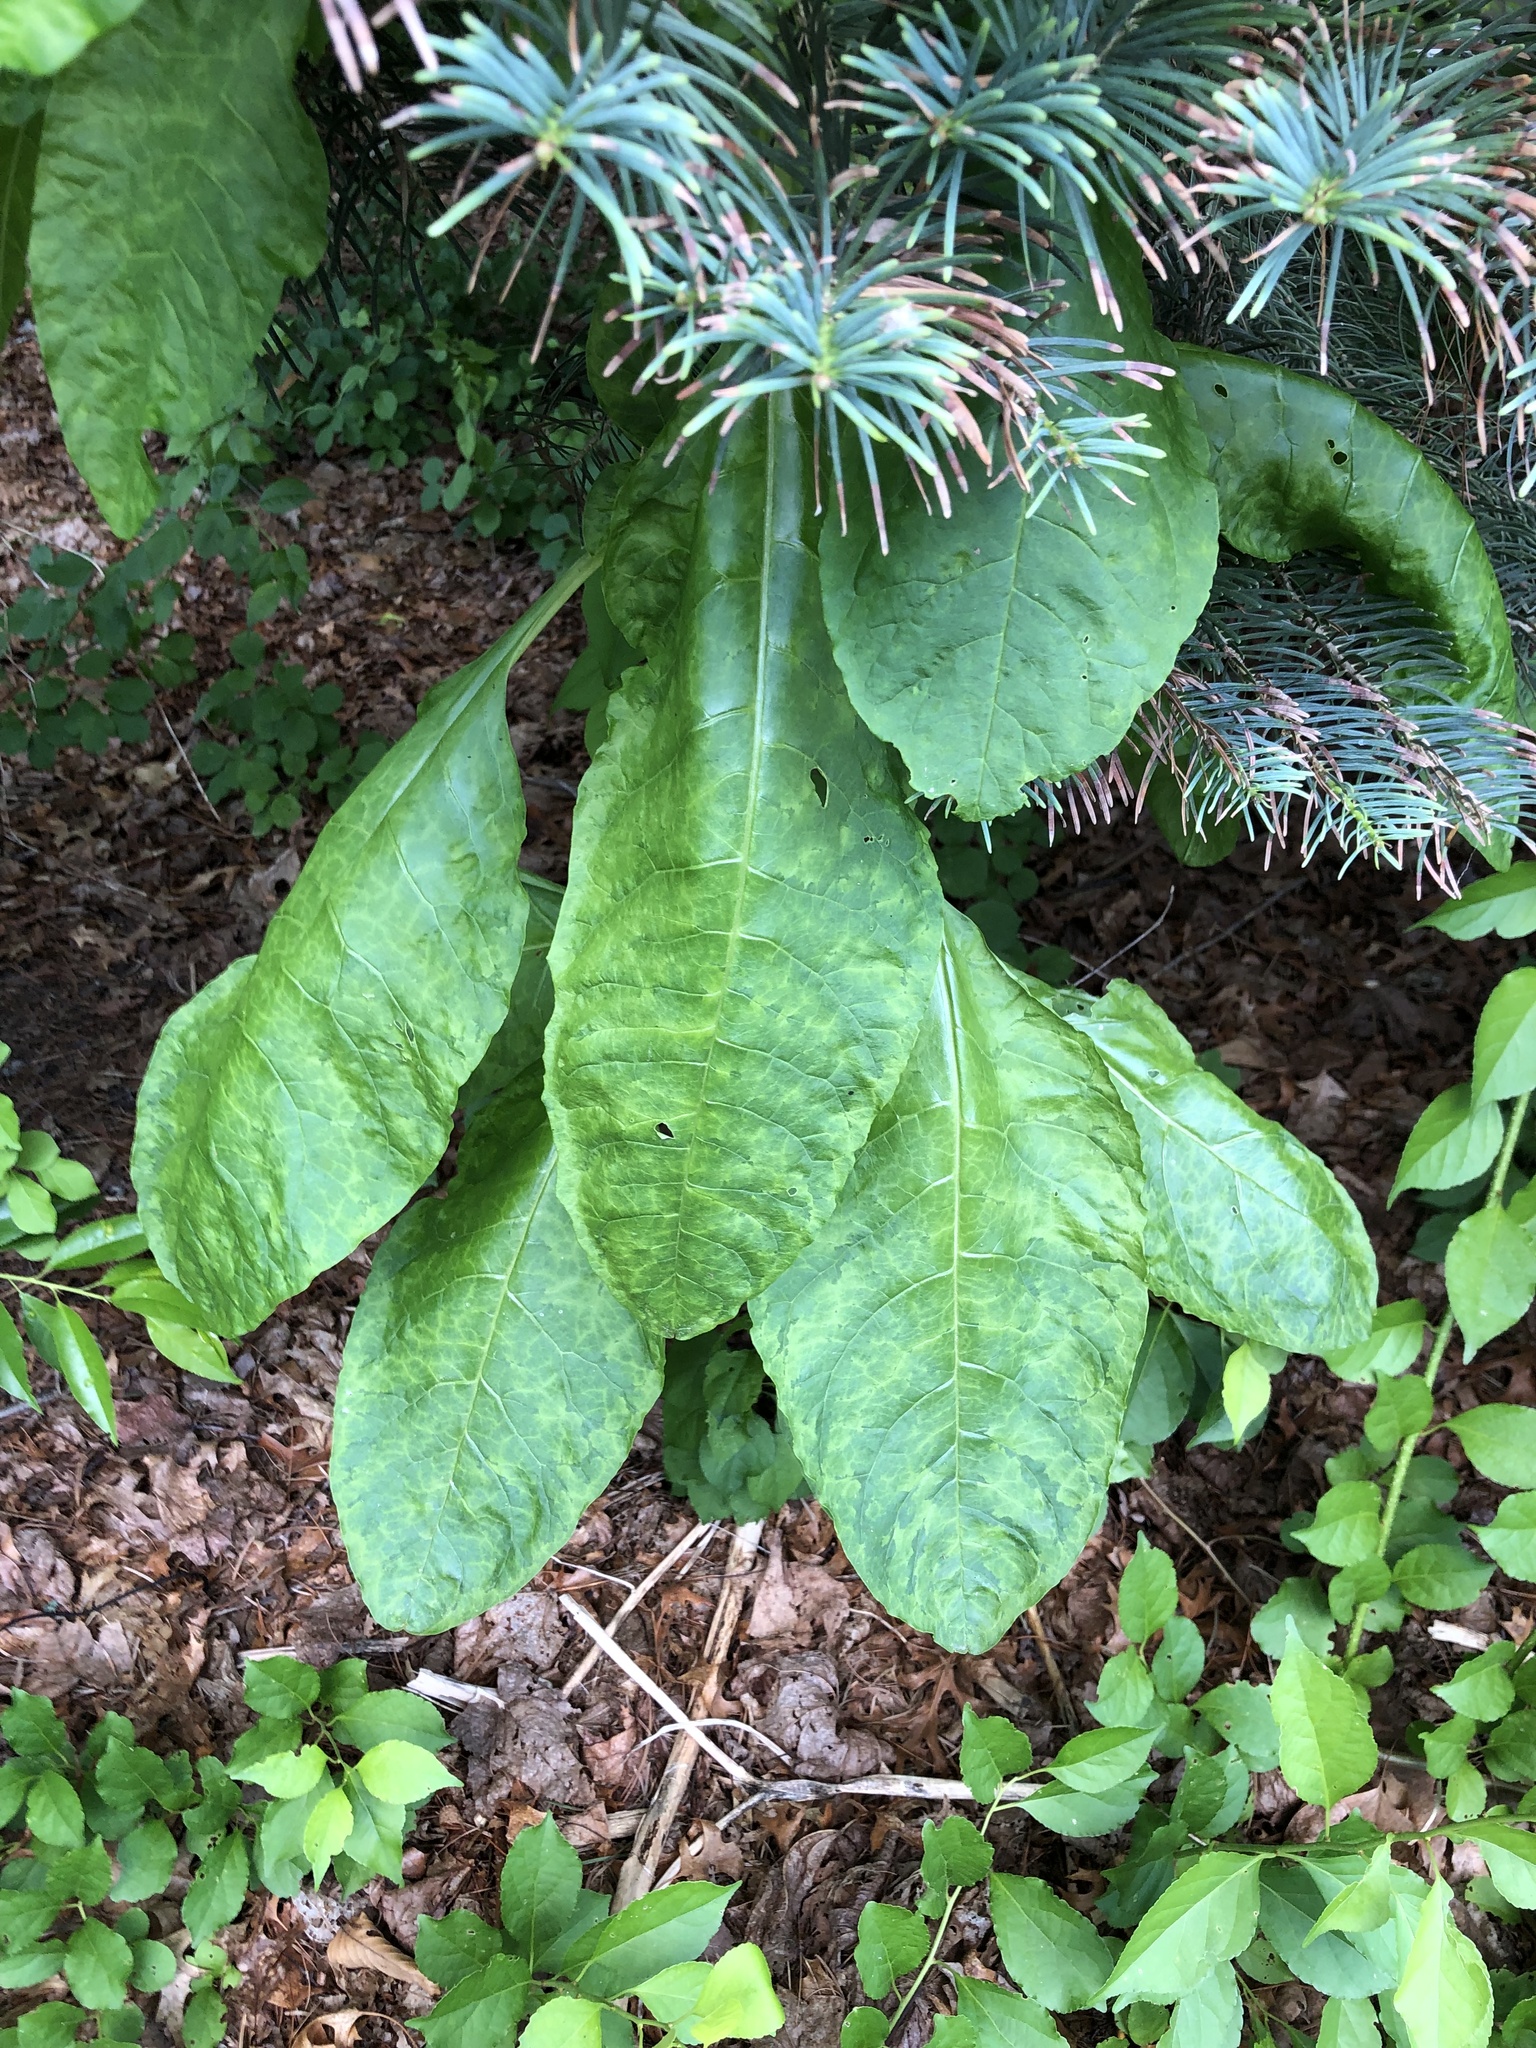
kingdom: Plantae
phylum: Tracheophyta
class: Magnoliopsida
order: Caryophyllales
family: Phytolaccaceae
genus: Phytolacca
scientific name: Phytolacca americana
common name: American pokeweed
